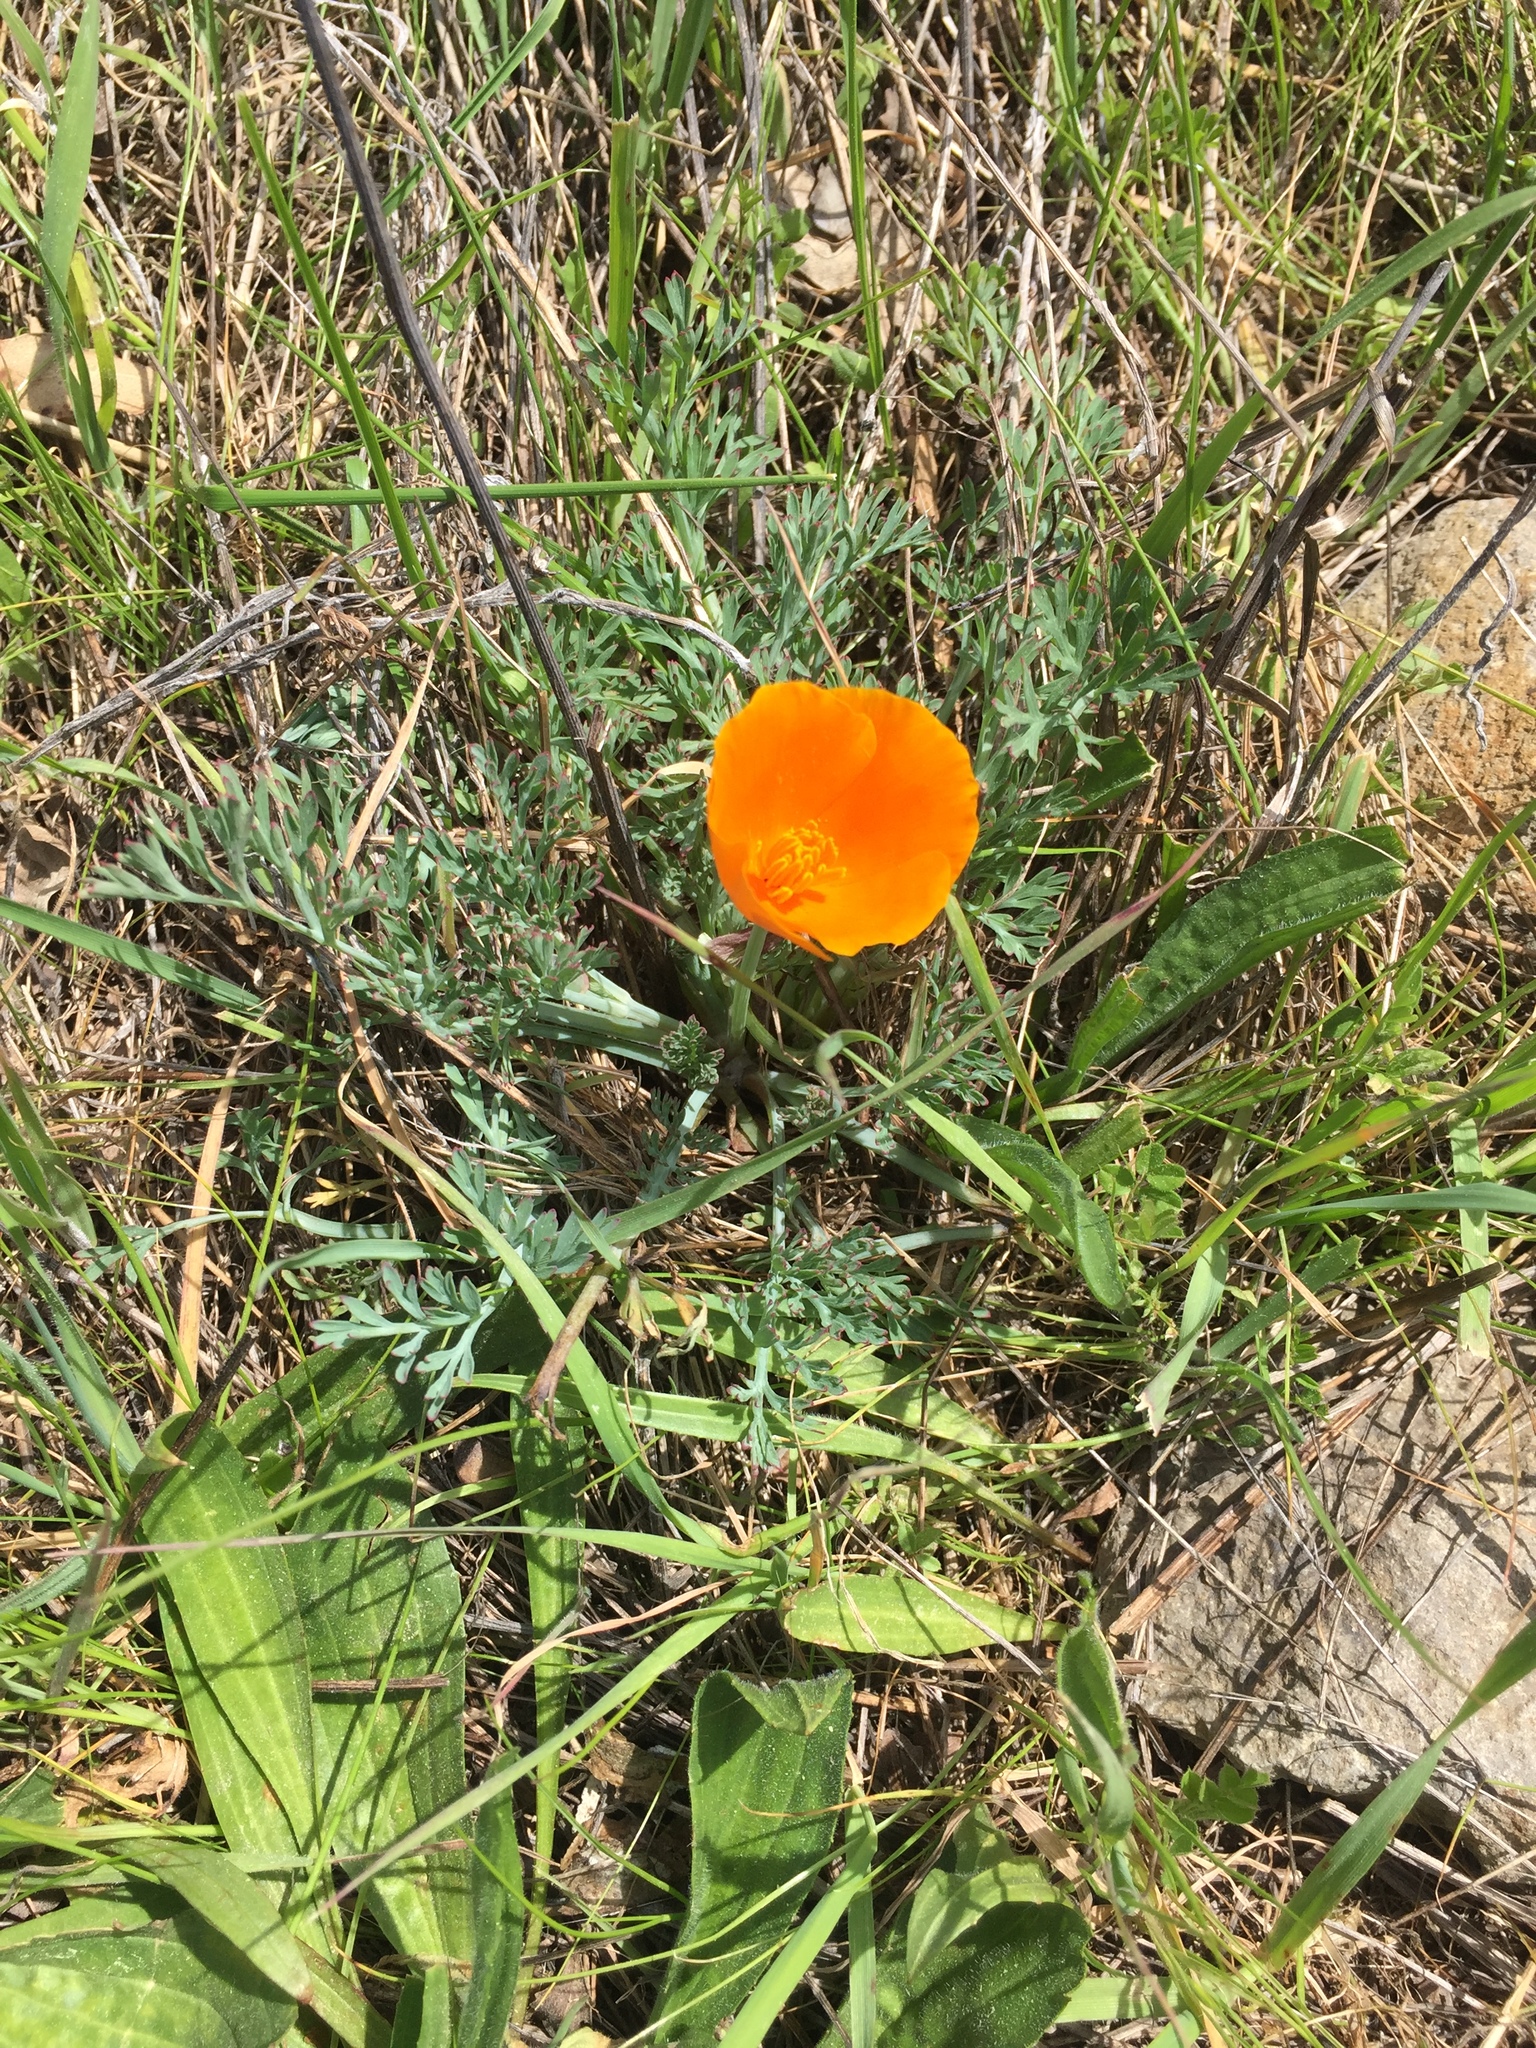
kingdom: Plantae
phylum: Tracheophyta
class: Magnoliopsida
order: Ranunculales
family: Papaveraceae
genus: Eschscholzia
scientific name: Eschscholzia californica
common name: California poppy
